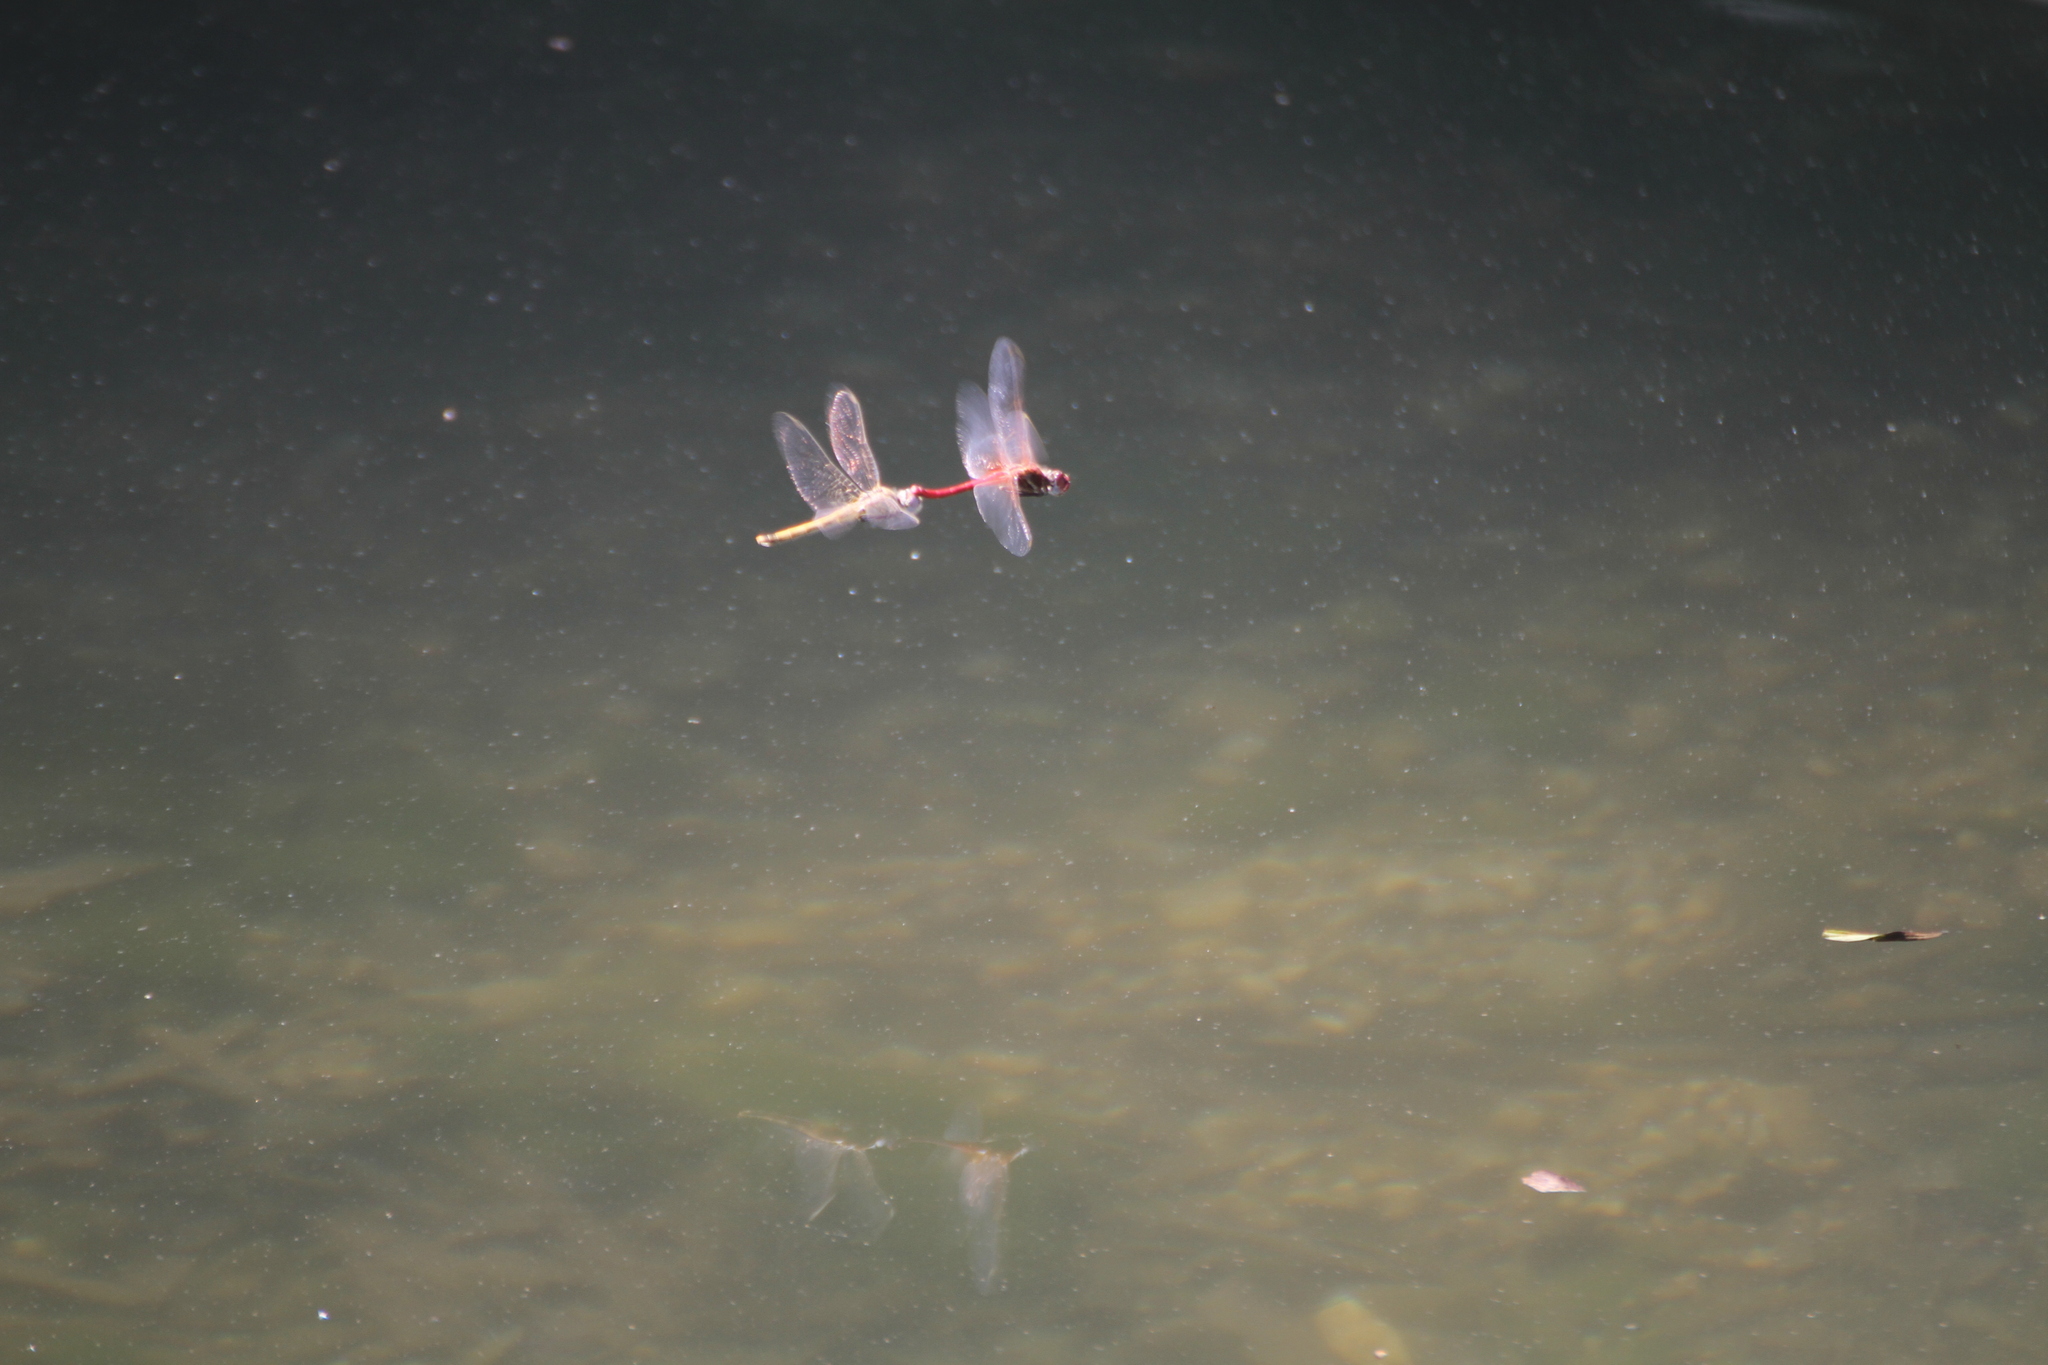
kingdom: Animalia
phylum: Arthropoda
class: Insecta
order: Odonata
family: Libellulidae
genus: Sympetrum
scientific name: Sympetrum fonscolombii
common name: Red-veined darter
